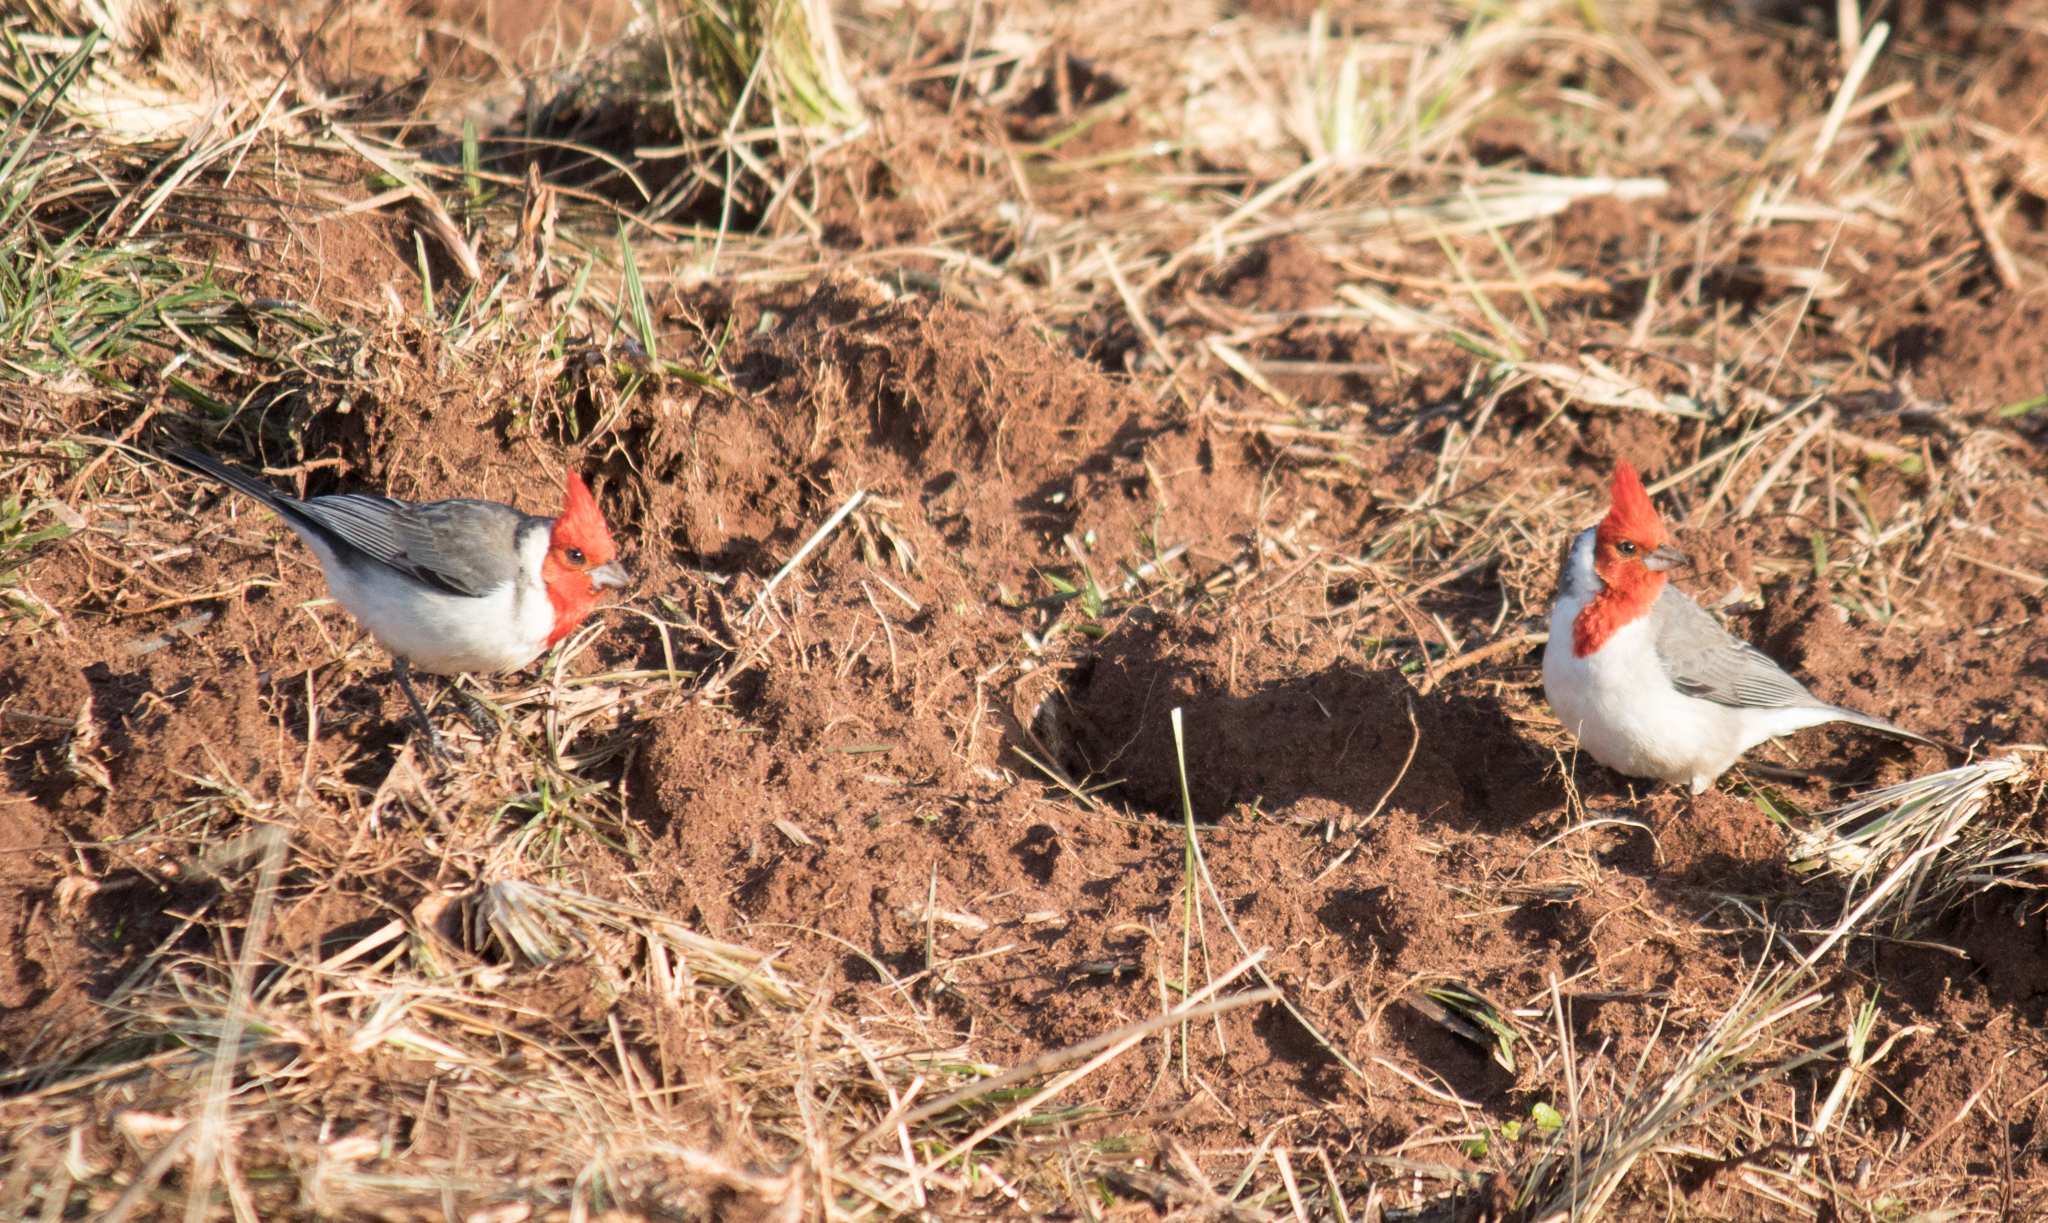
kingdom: Animalia
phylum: Chordata
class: Aves
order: Passeriformes
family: Thraupidae
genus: Paroaria
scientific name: Paroaria coronata
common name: Red-crested cardinal
